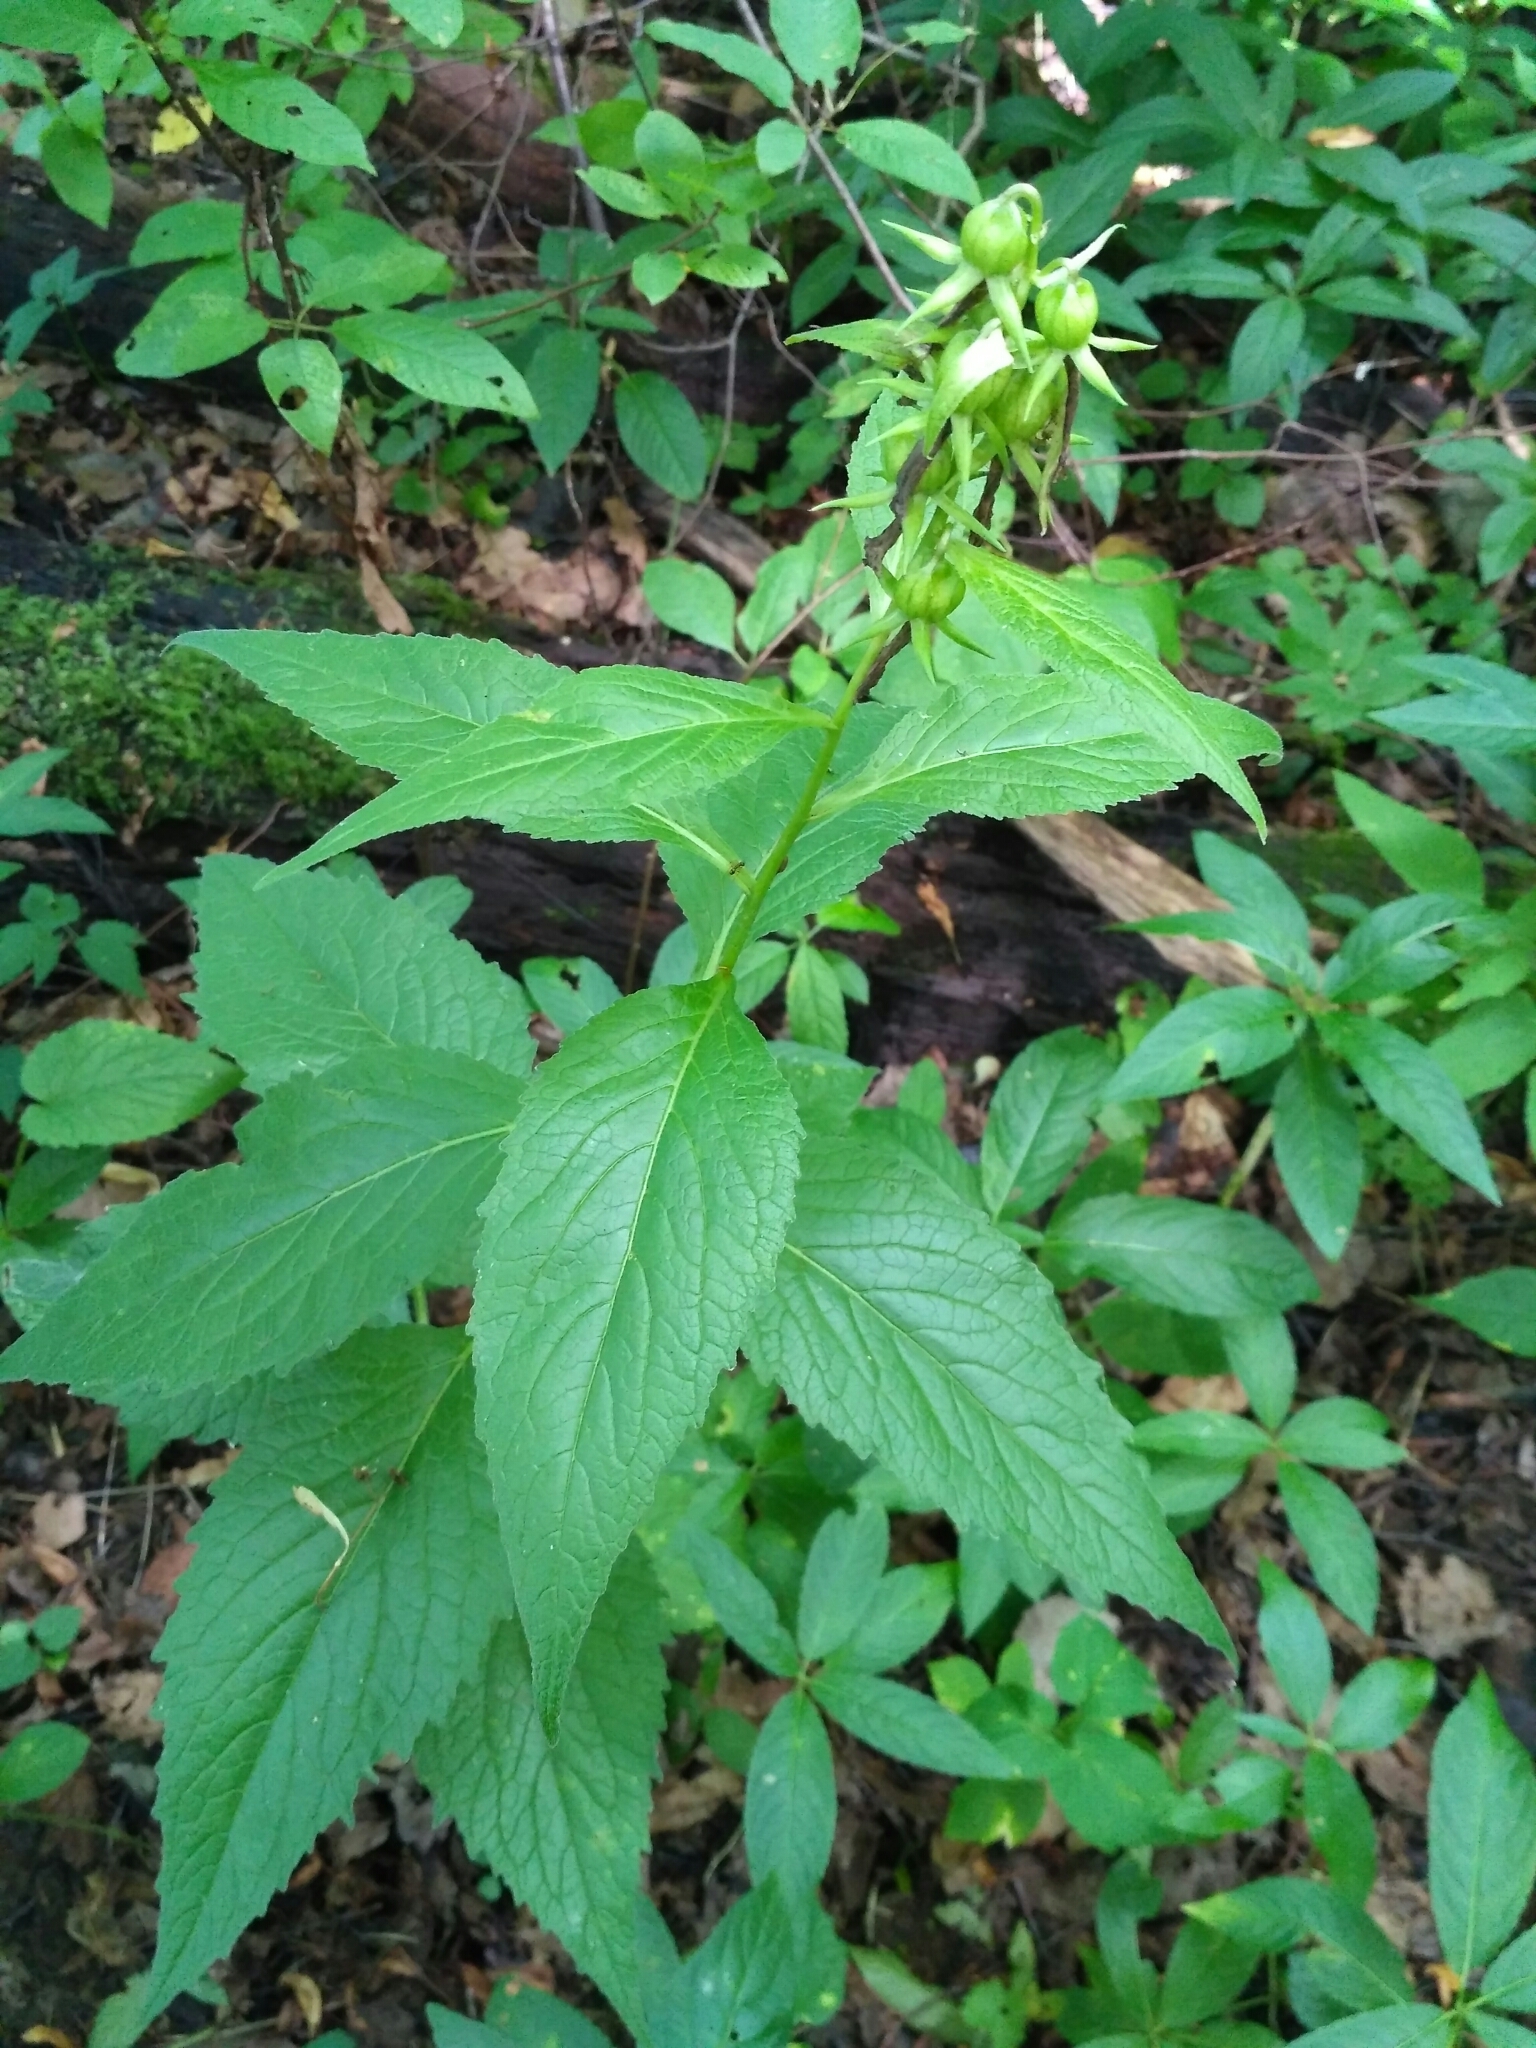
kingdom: Plantae
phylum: Tracheophyta
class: Magnoliopsida
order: Asterales
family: Campanulaceae
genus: Campanula
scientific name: Campanula latifolia
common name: Giant bellflower
